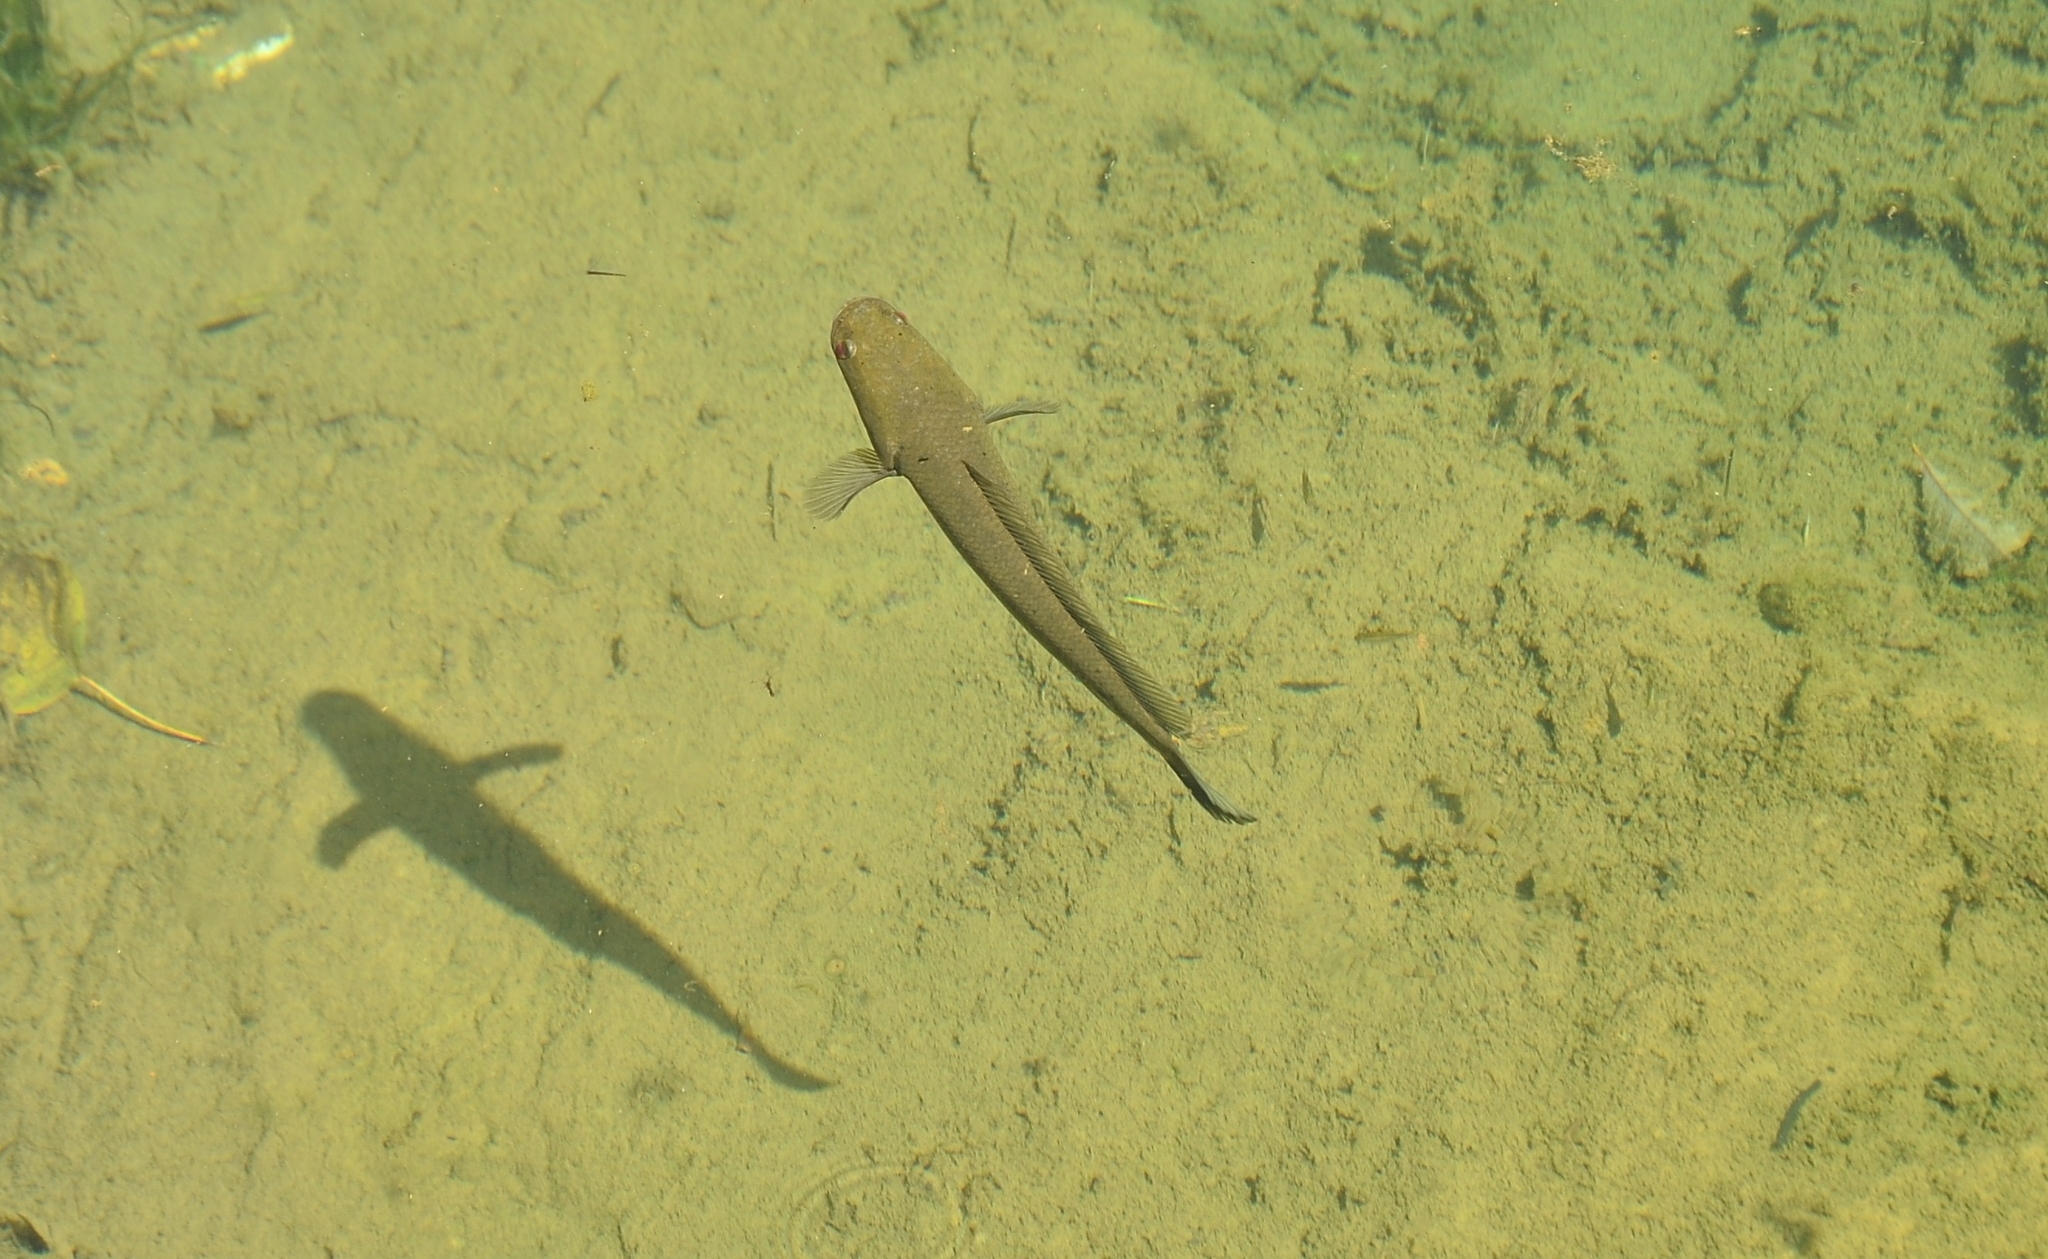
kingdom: Animalia
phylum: Chordata
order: Perciformes
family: Channidae
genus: Channa
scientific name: Channa striata
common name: Striped snakehead
